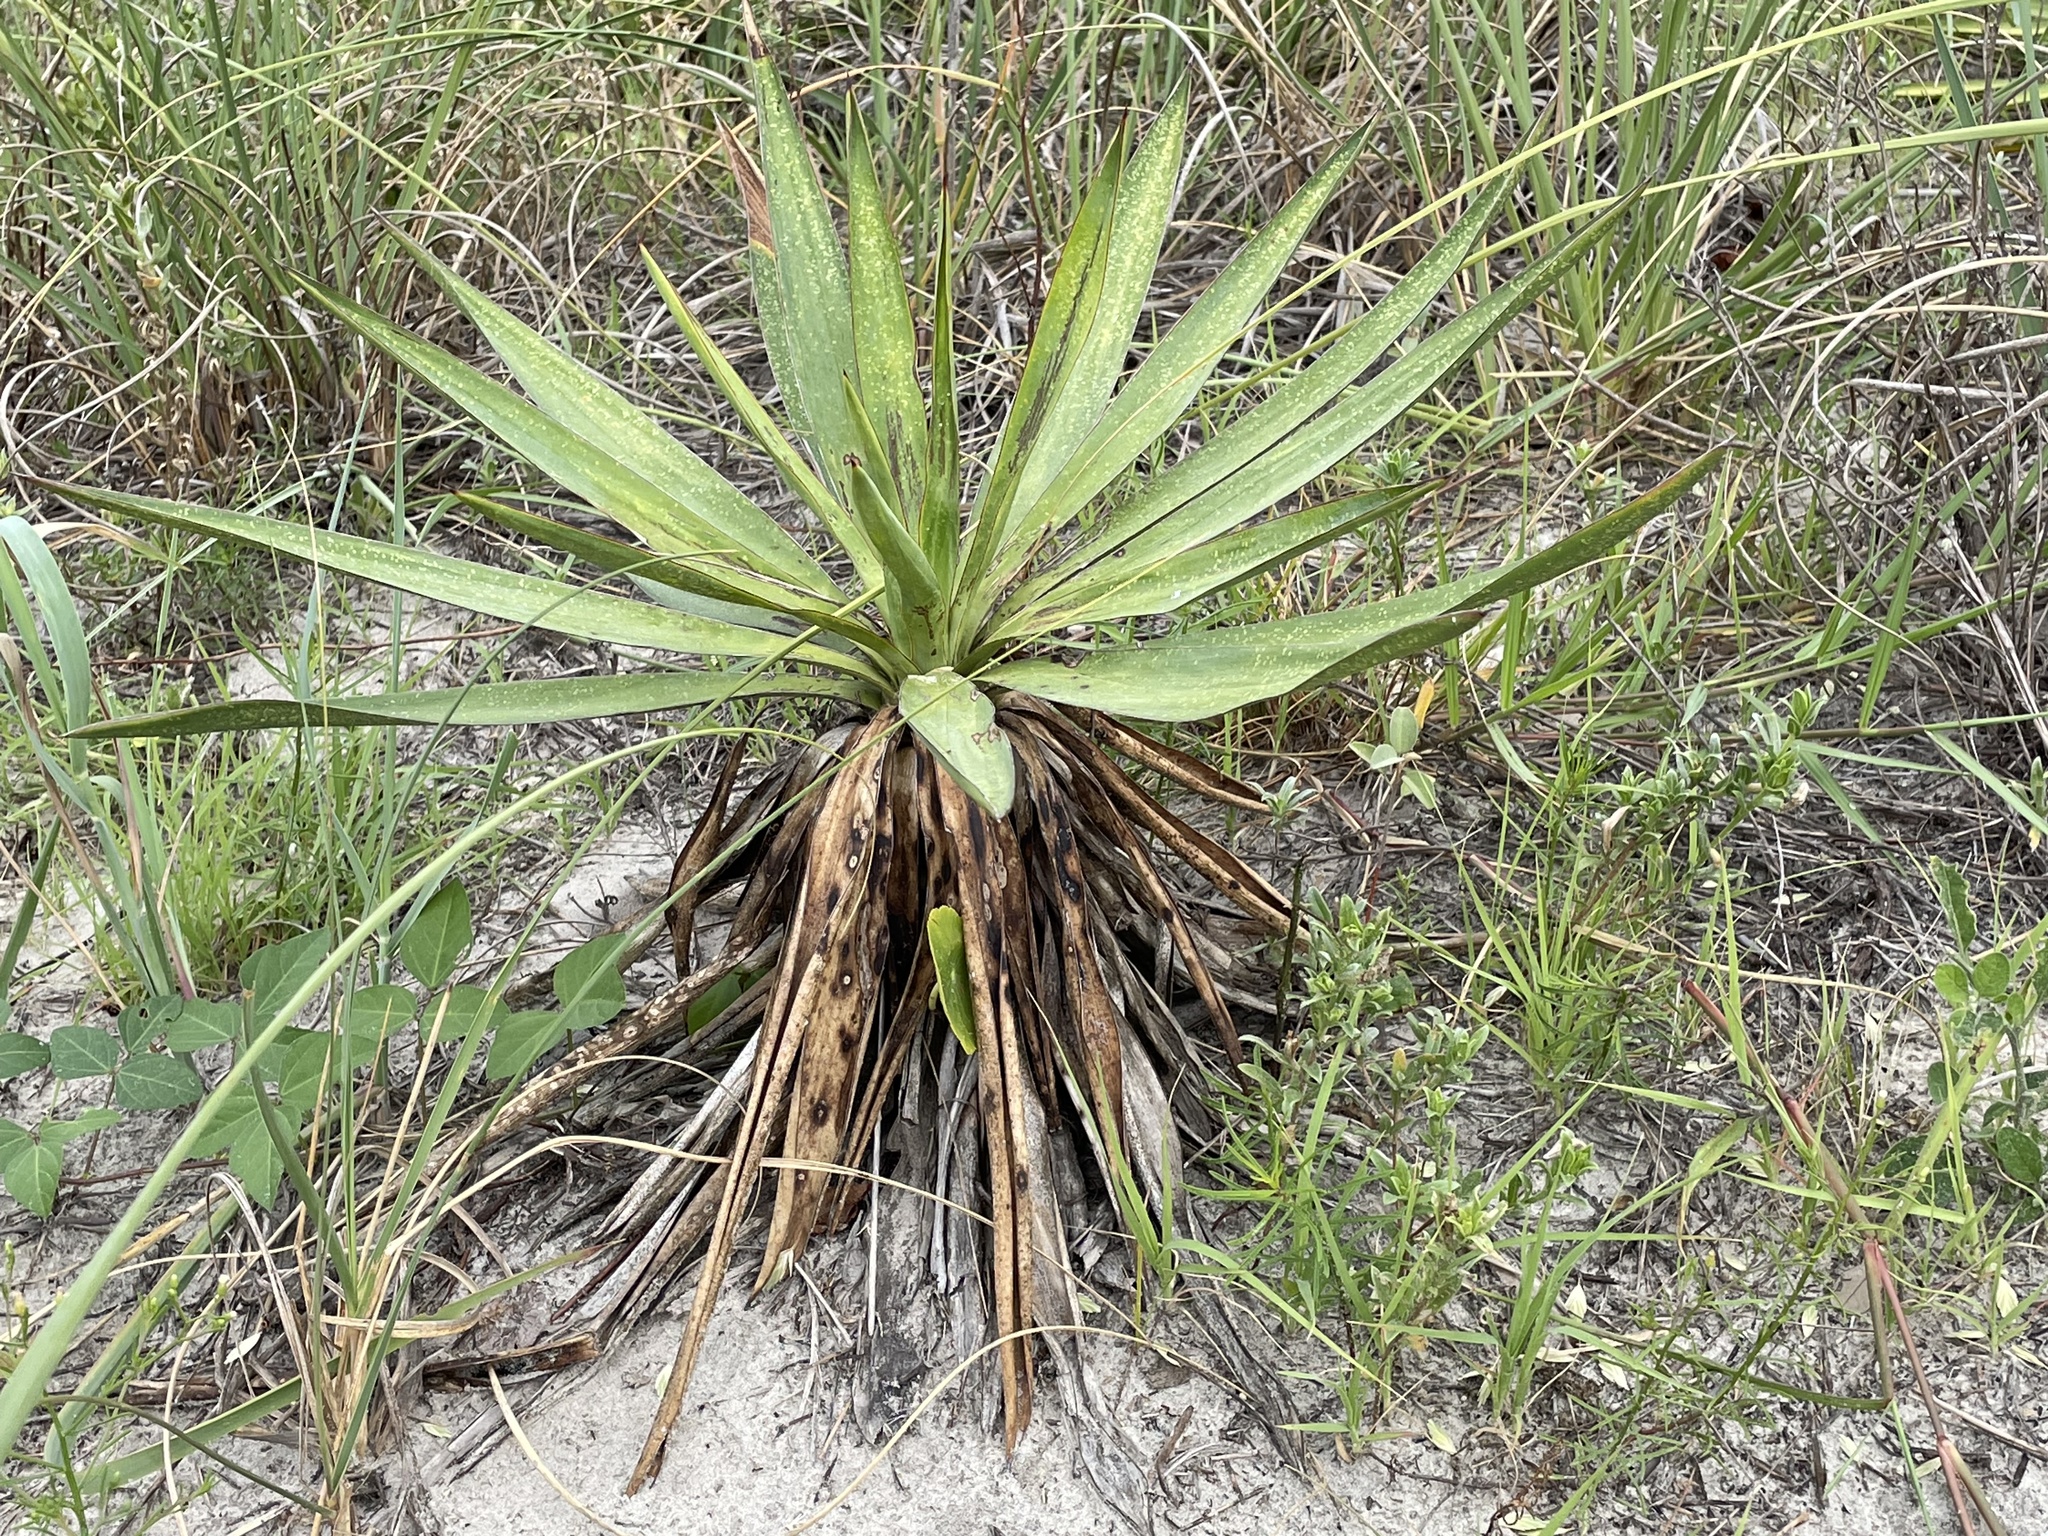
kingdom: Plantae
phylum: Tracheophyta
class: Liliopsida
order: Asparagales
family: Asparagaceae
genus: Yucca
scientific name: Yucca gloriosa
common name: Spanish-dagger
